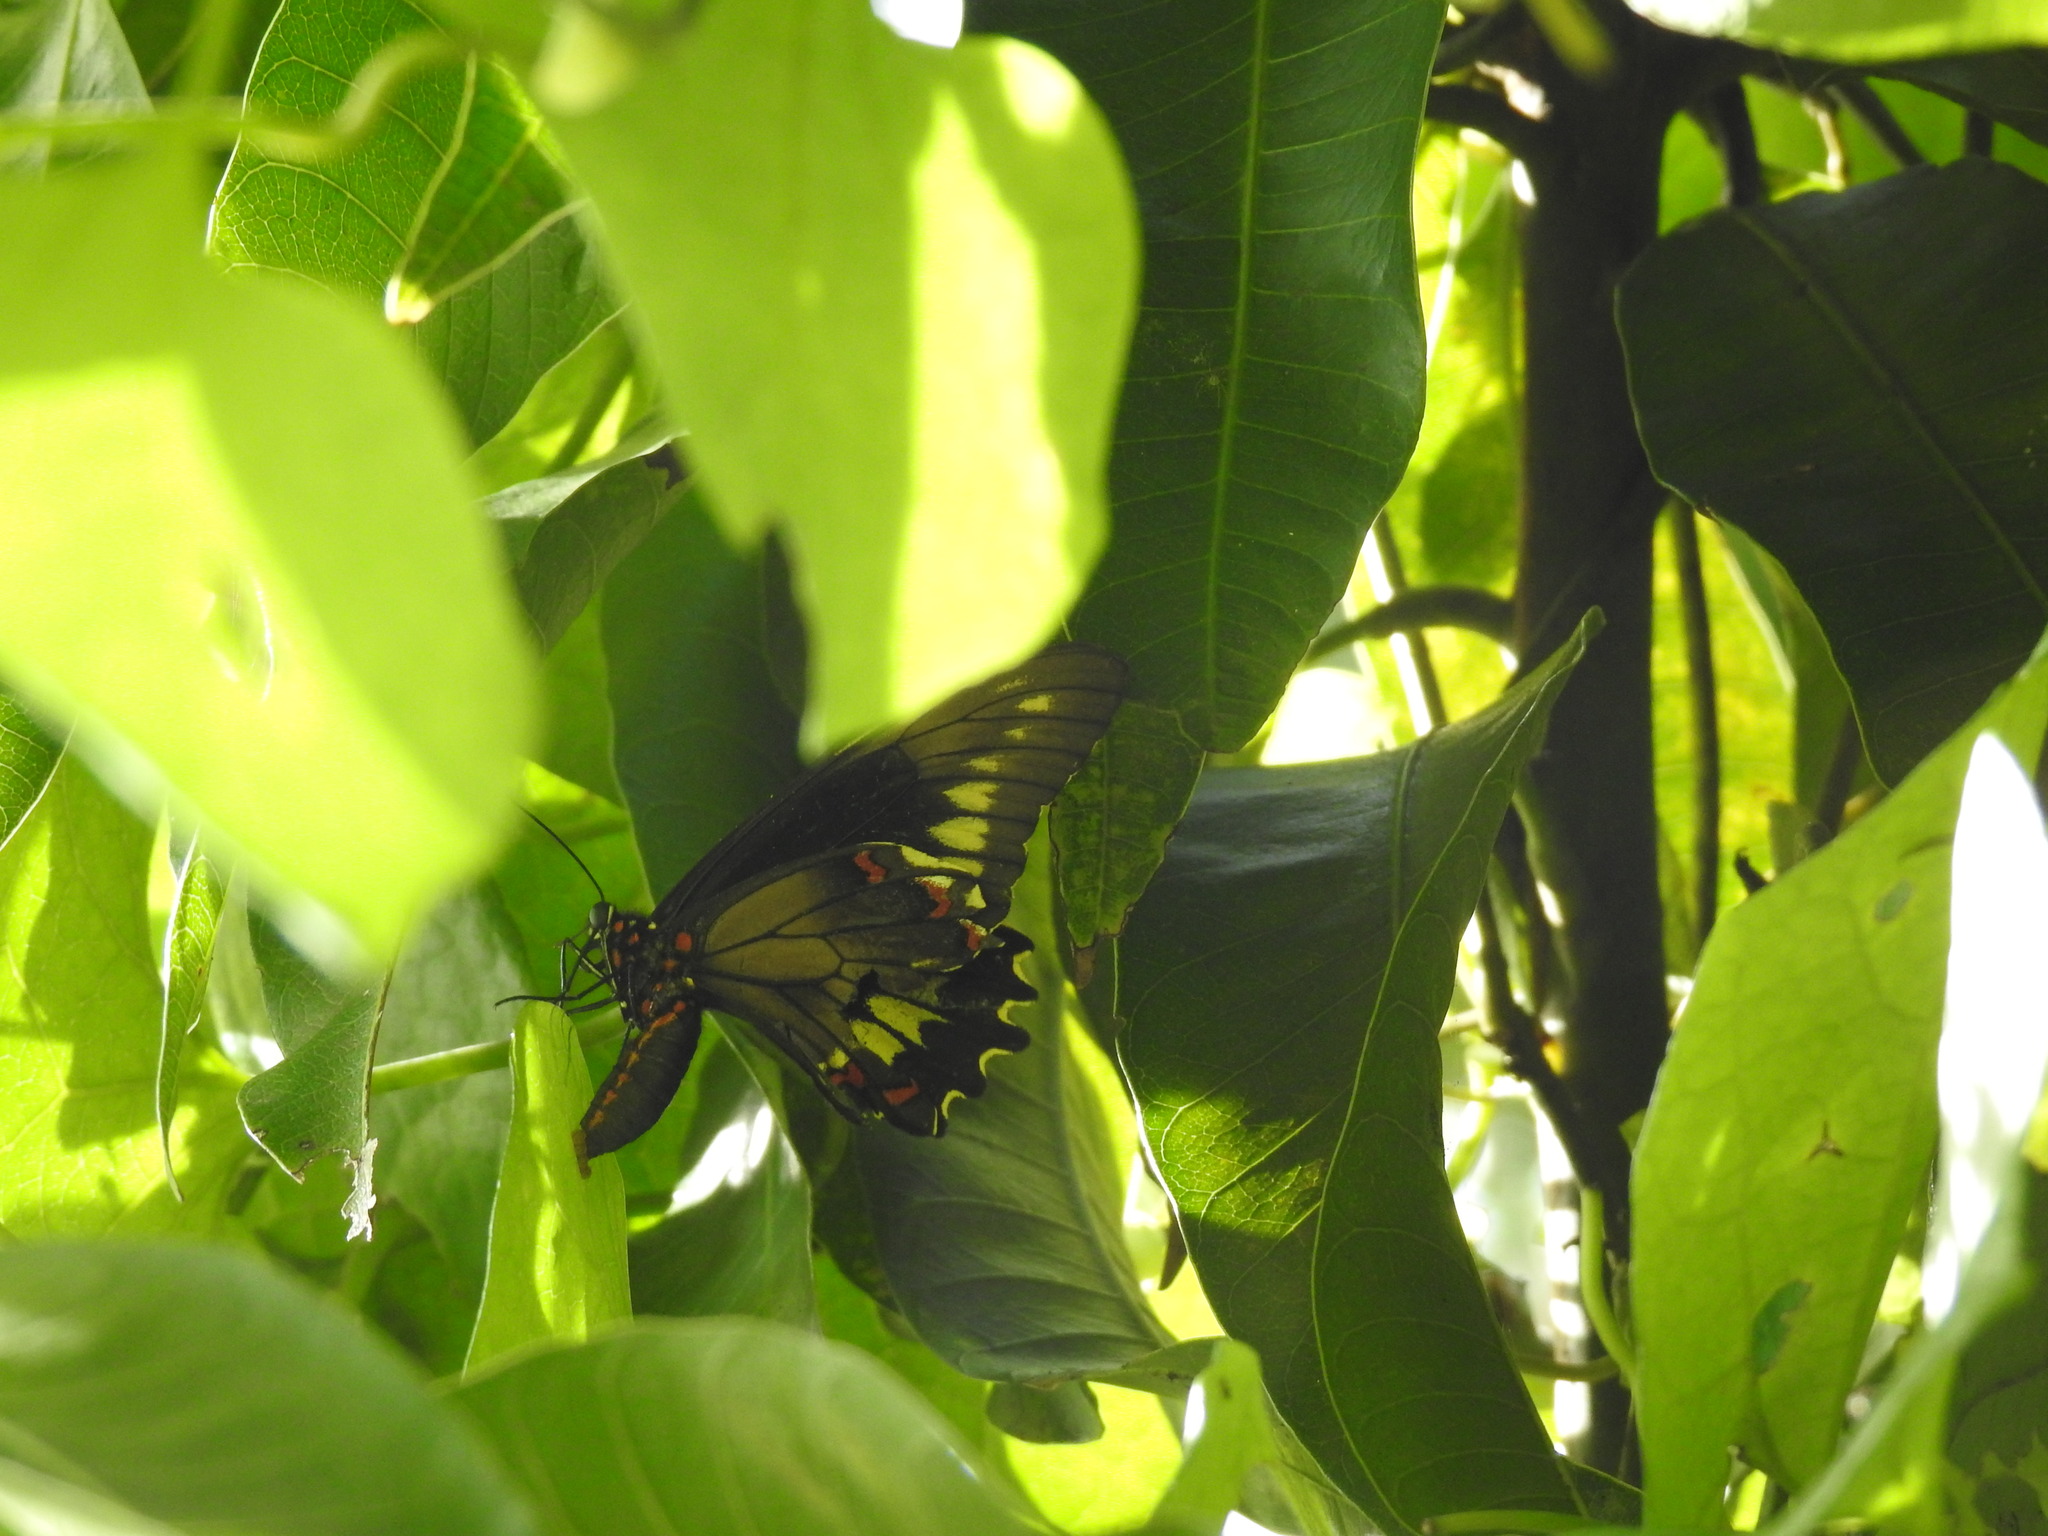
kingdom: Animalia
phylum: Arthropoda
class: Insecta
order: Lepidoptera
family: Papilionidae
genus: Battus
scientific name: Battus polydamas
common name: Polydamas swallowtail
